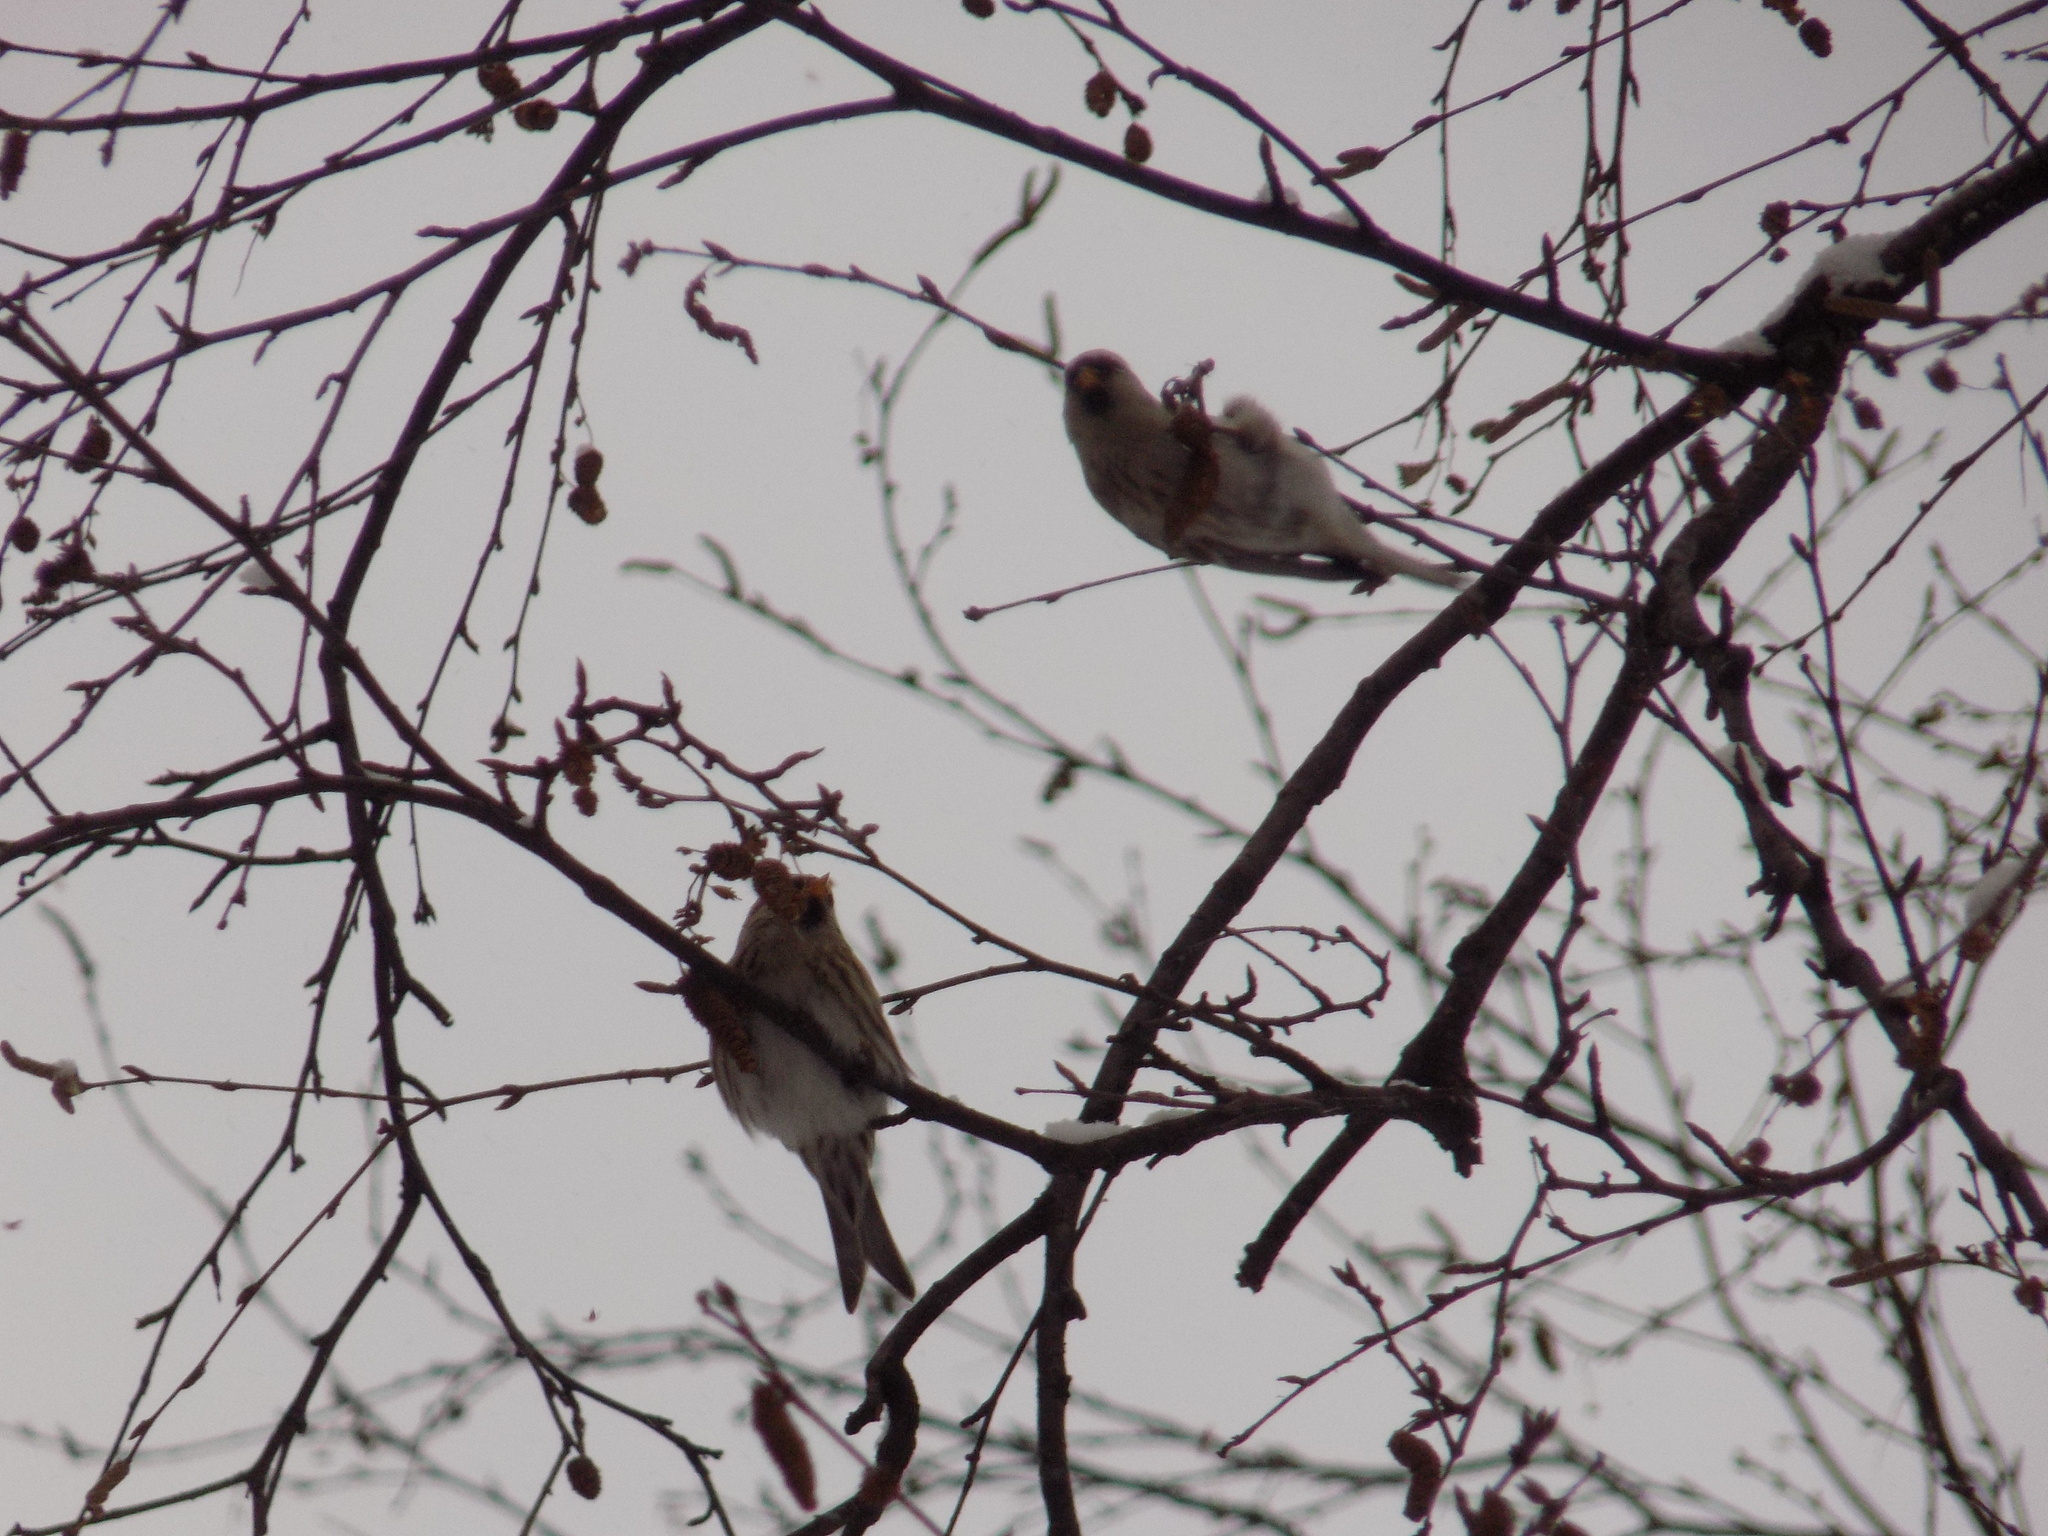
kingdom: Animalia
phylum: Chordata
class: Aves
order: Passeriformes
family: Fringillidae
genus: Acanthis
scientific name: Acanthis flammea
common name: Common redpoll
